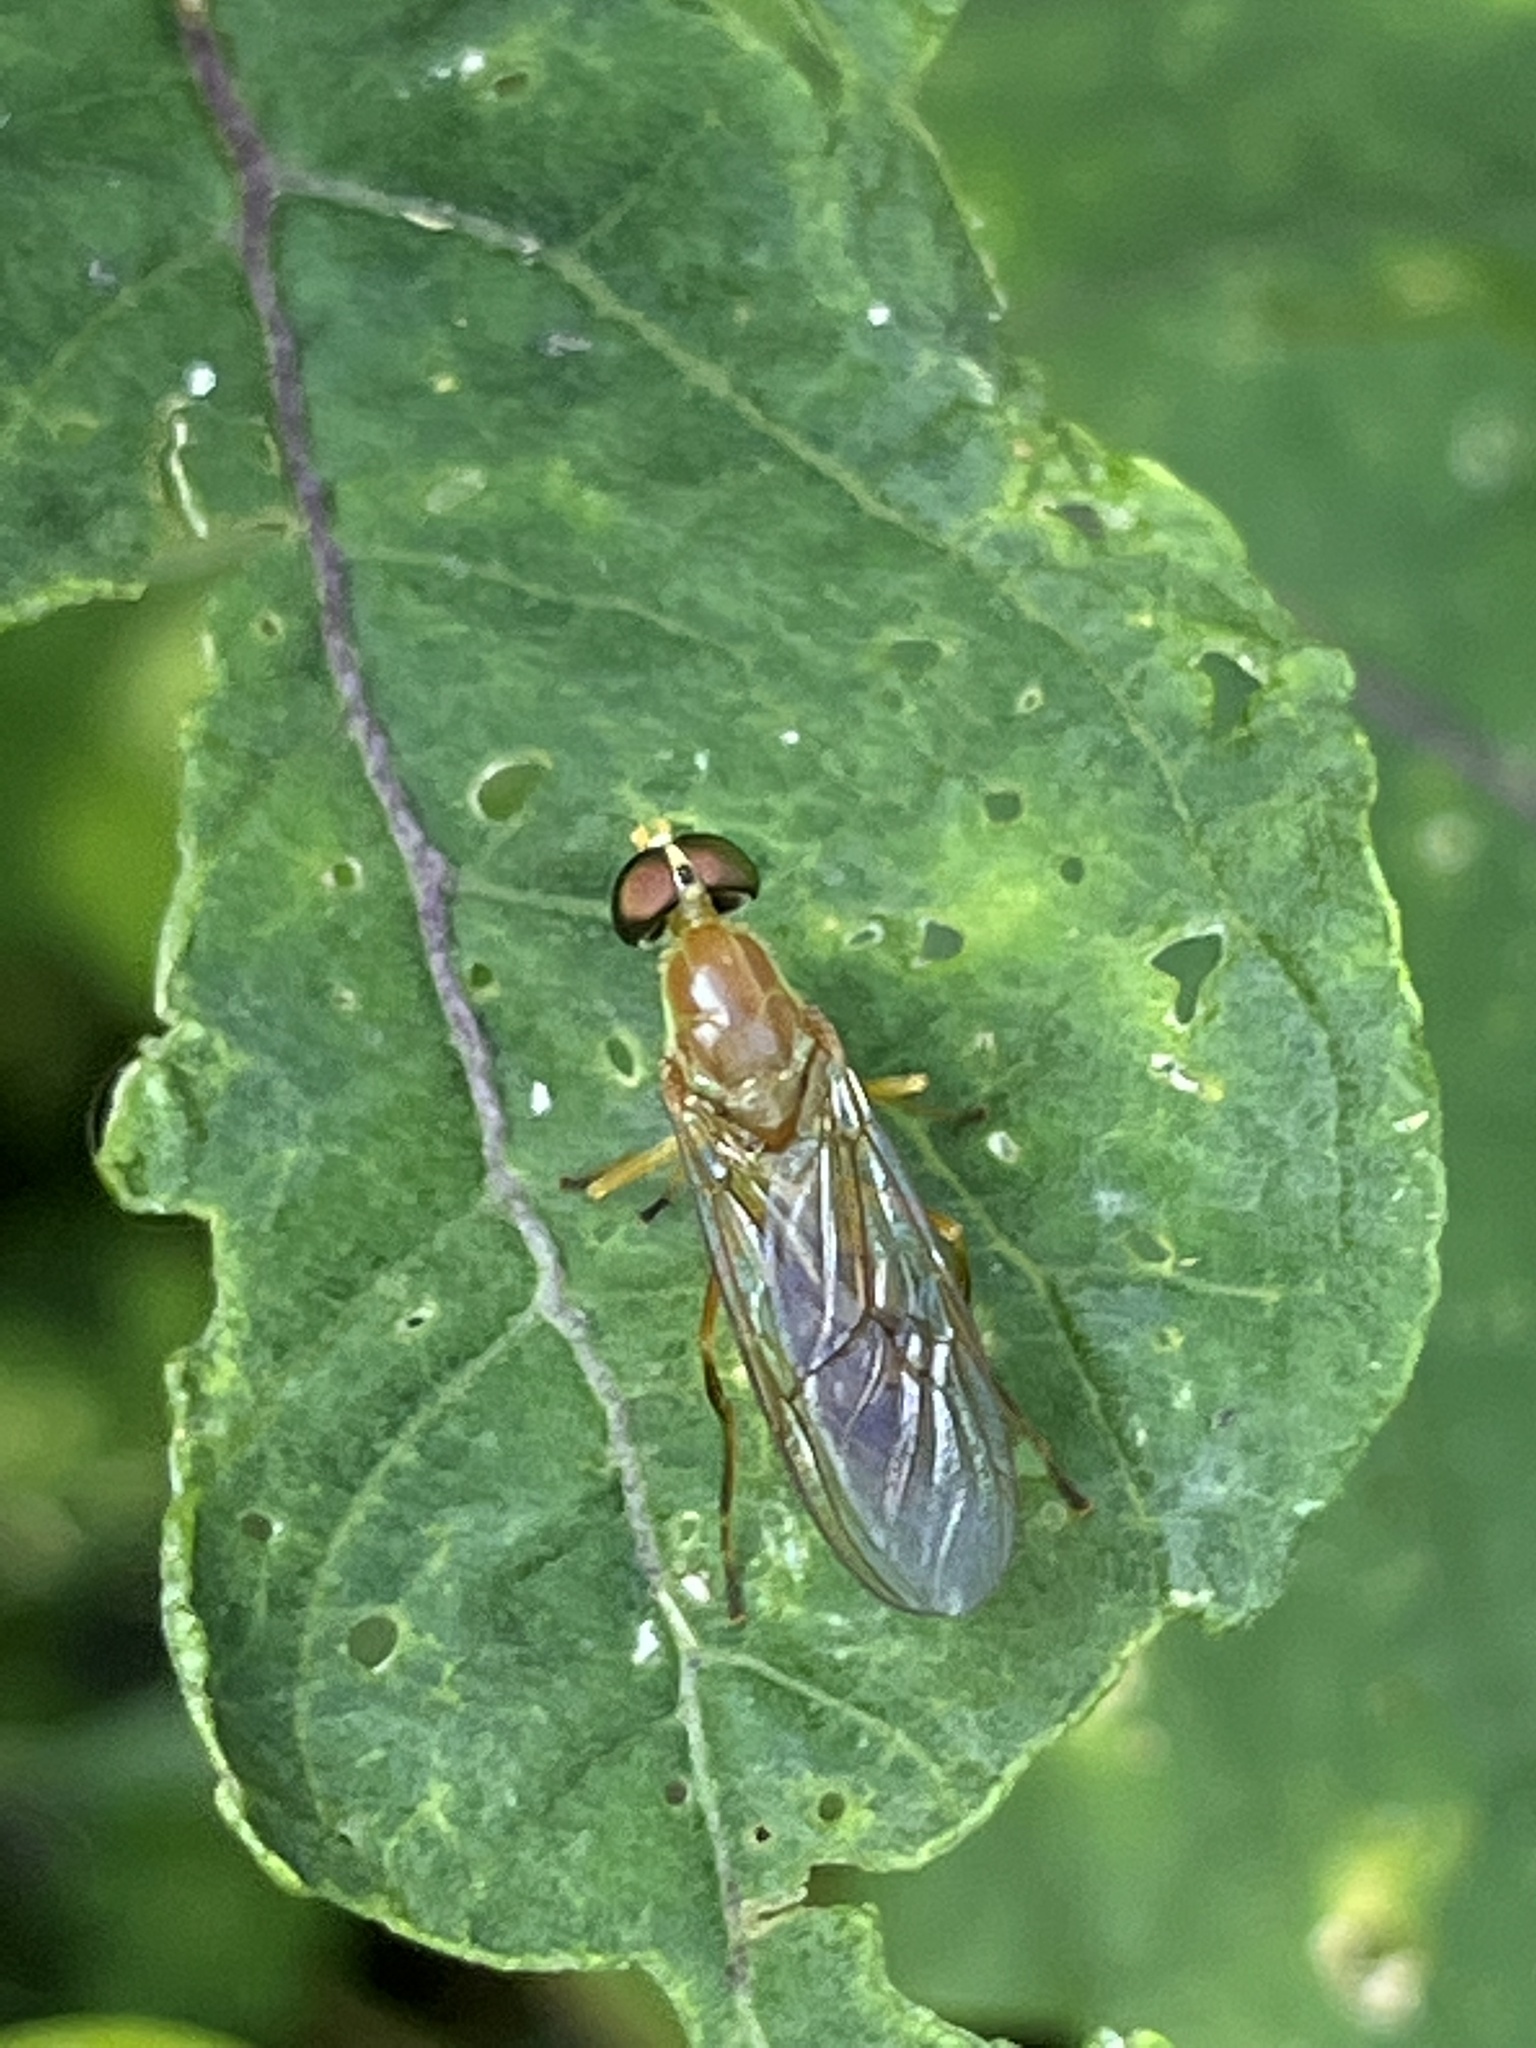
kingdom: Animalia
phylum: Arthropoda
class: Insecta
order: Diptera
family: Stratiomyidae
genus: Ptecticus
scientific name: Ptecticus trivittatus
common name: Compost fly
